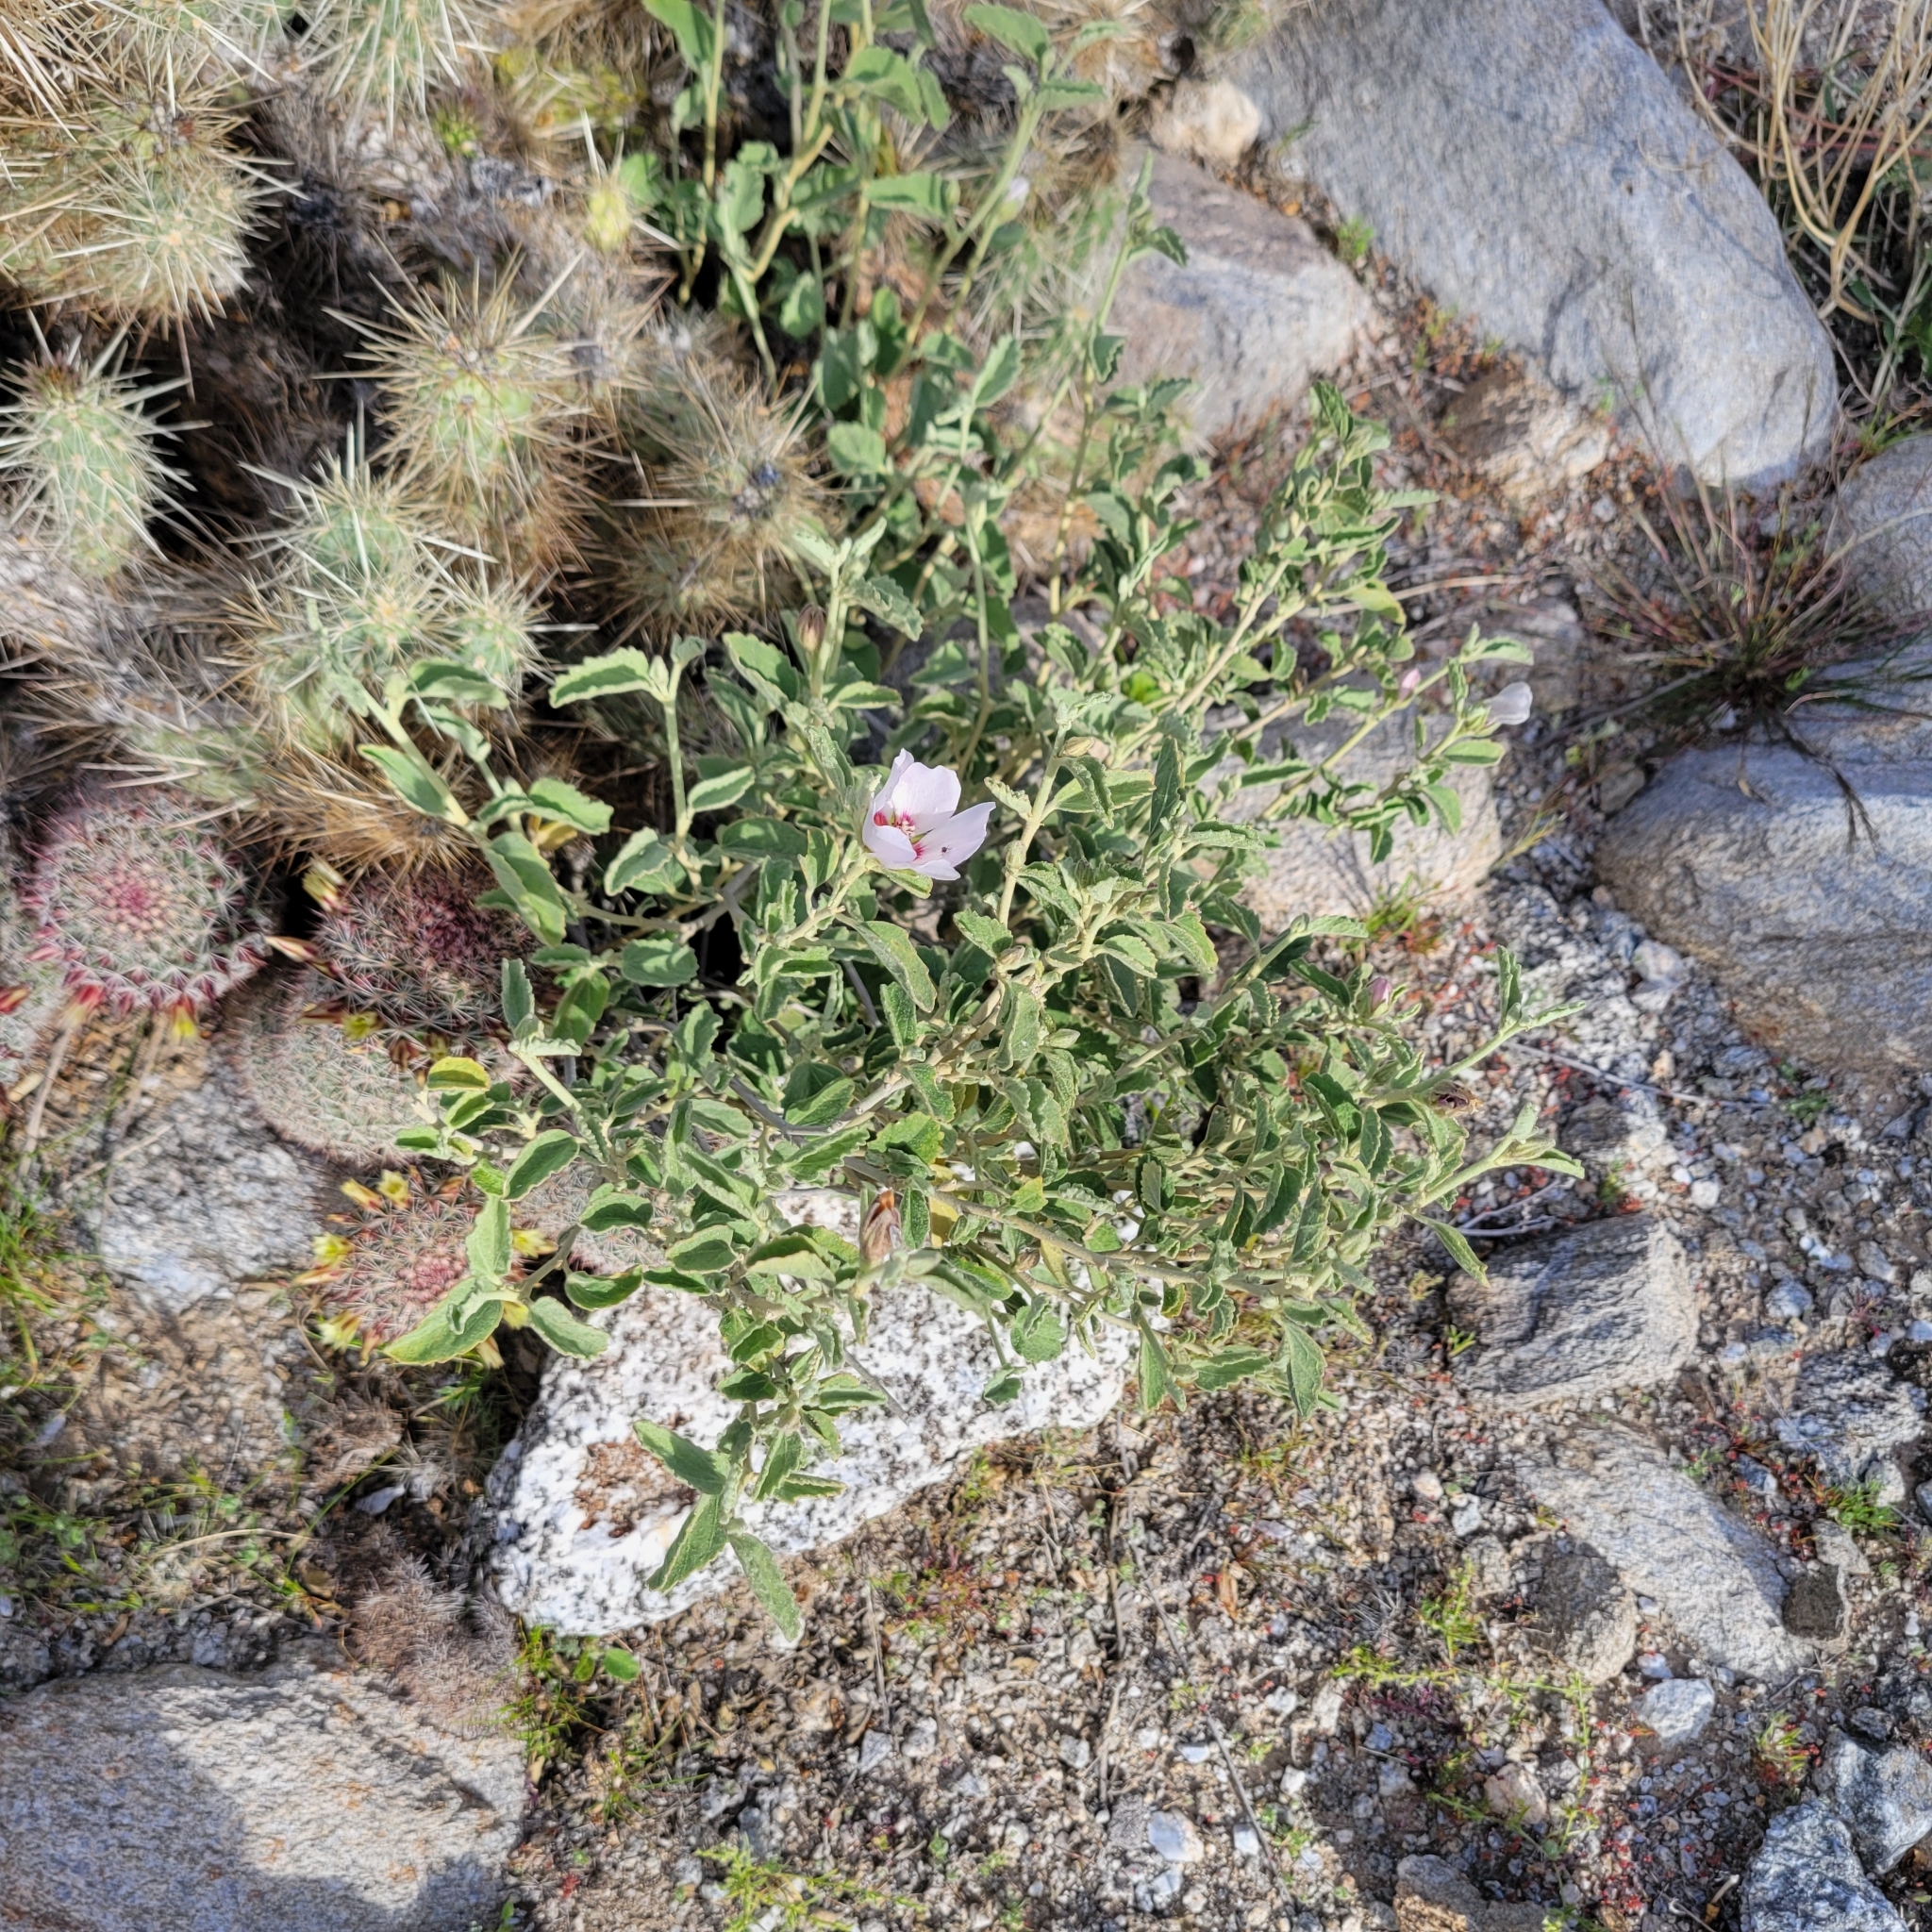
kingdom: Plantae
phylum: Tracheophyta
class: Magnoliopsida
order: Malvales
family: Malvaceae
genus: Hibiscus
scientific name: Hibiscus denudatus
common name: Paleface
